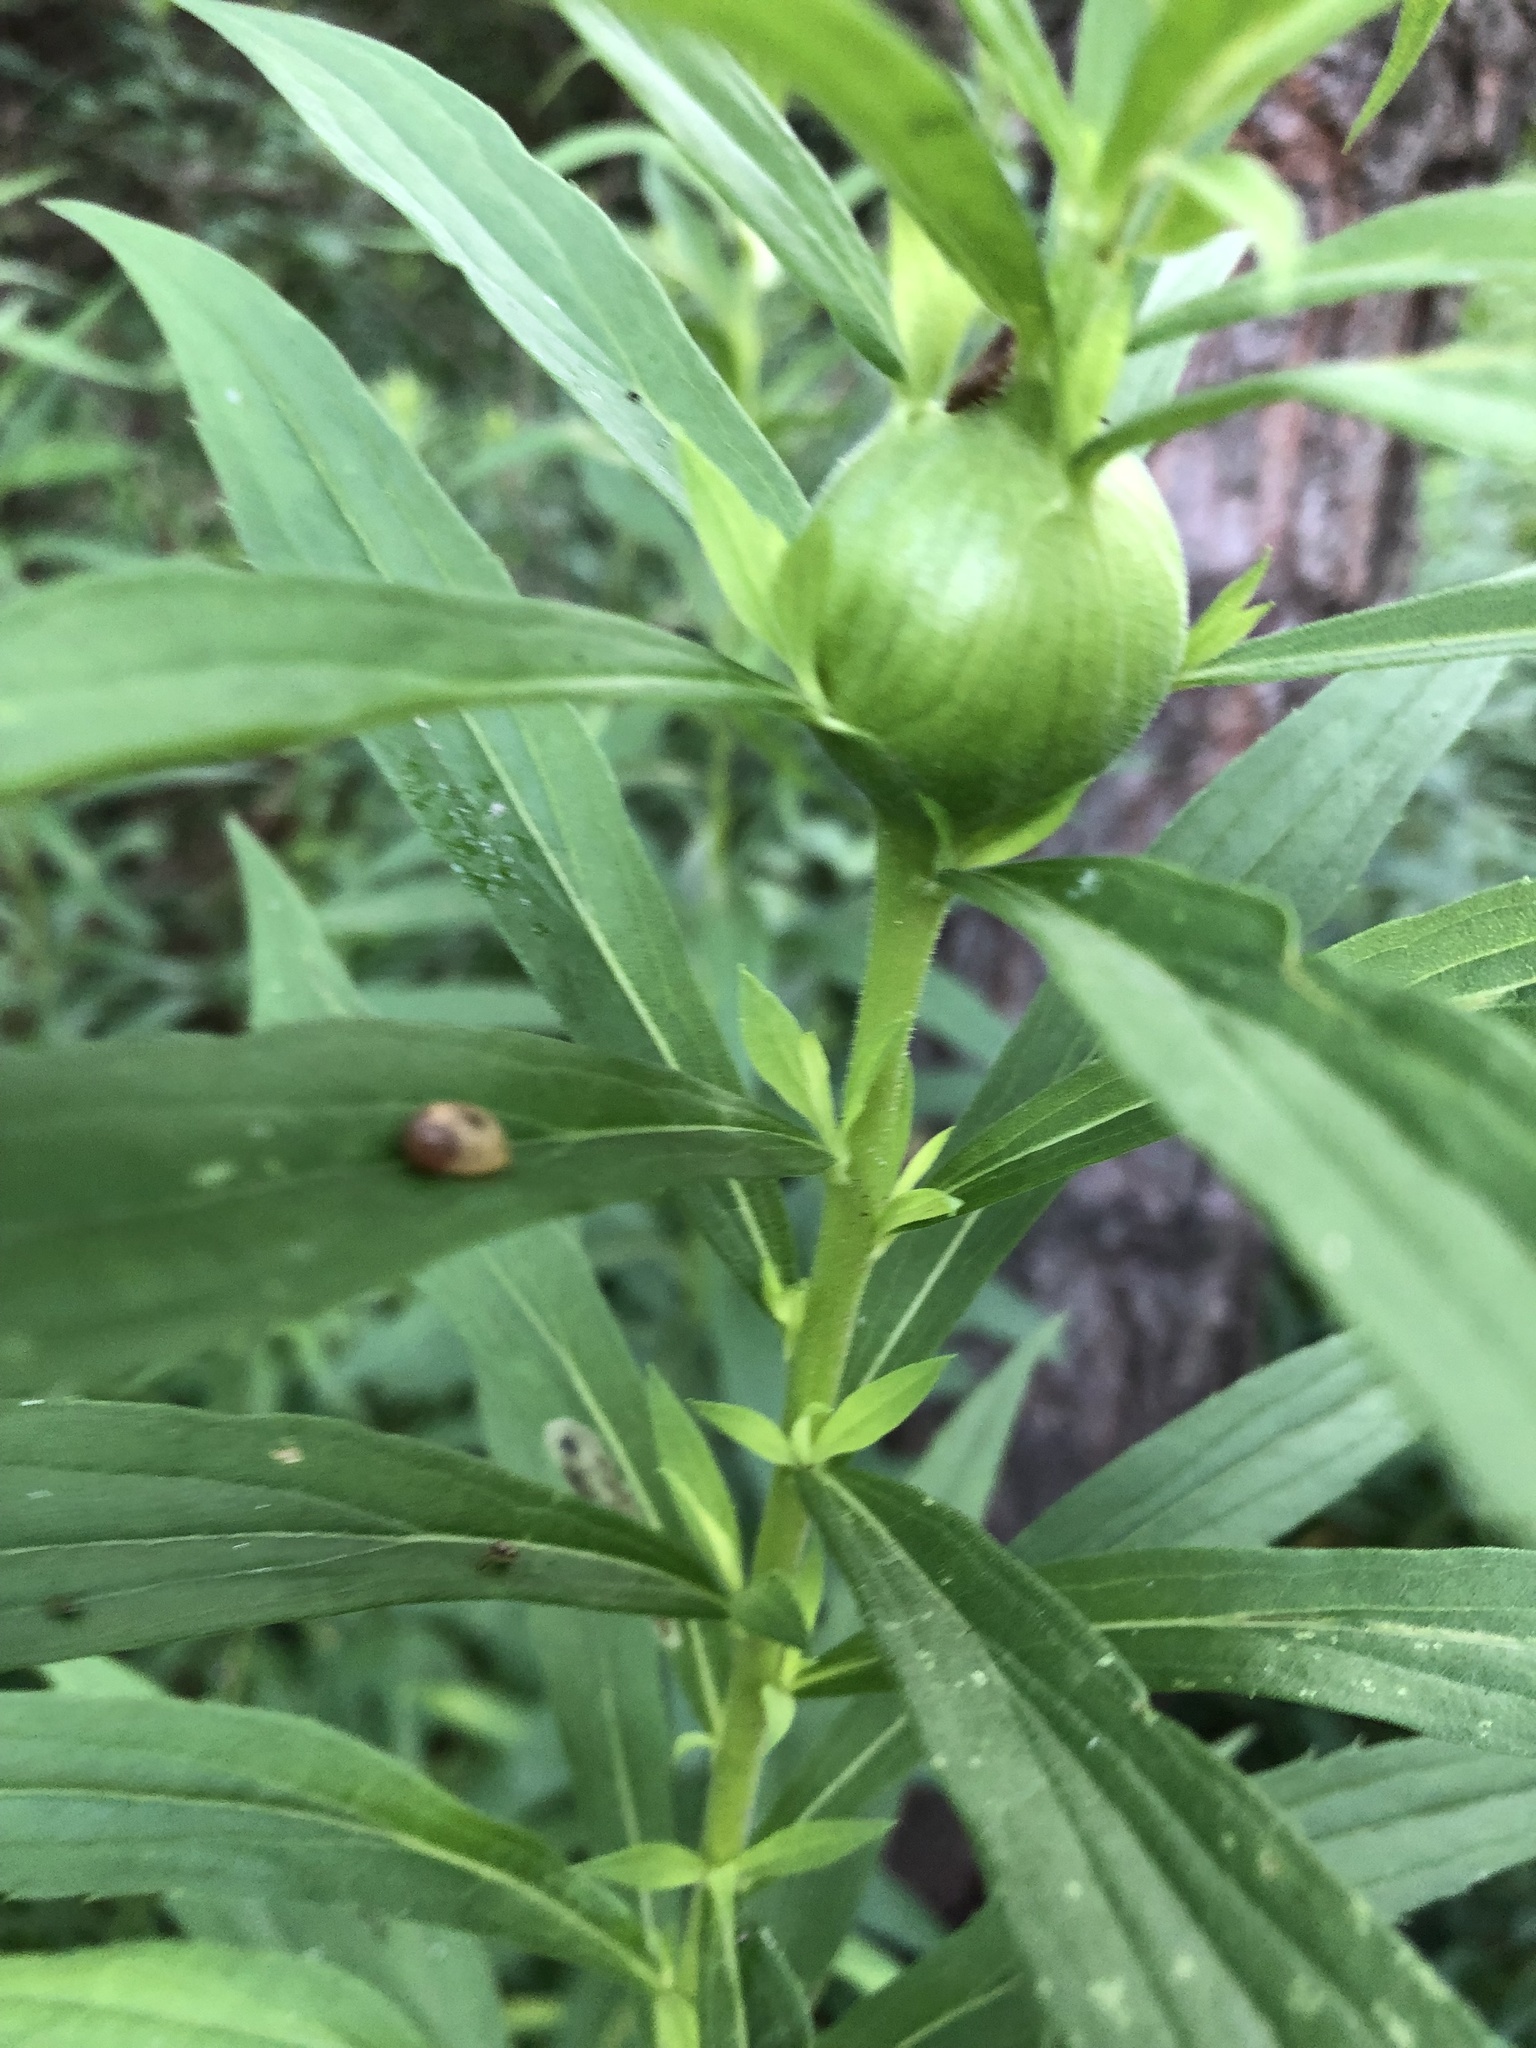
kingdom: Animalia
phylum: Arthropoda
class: Insecta
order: Diptera
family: Tephritidae
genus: Eurosta
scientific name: Eurosta solidaginis
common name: Goldenrod gall fly
